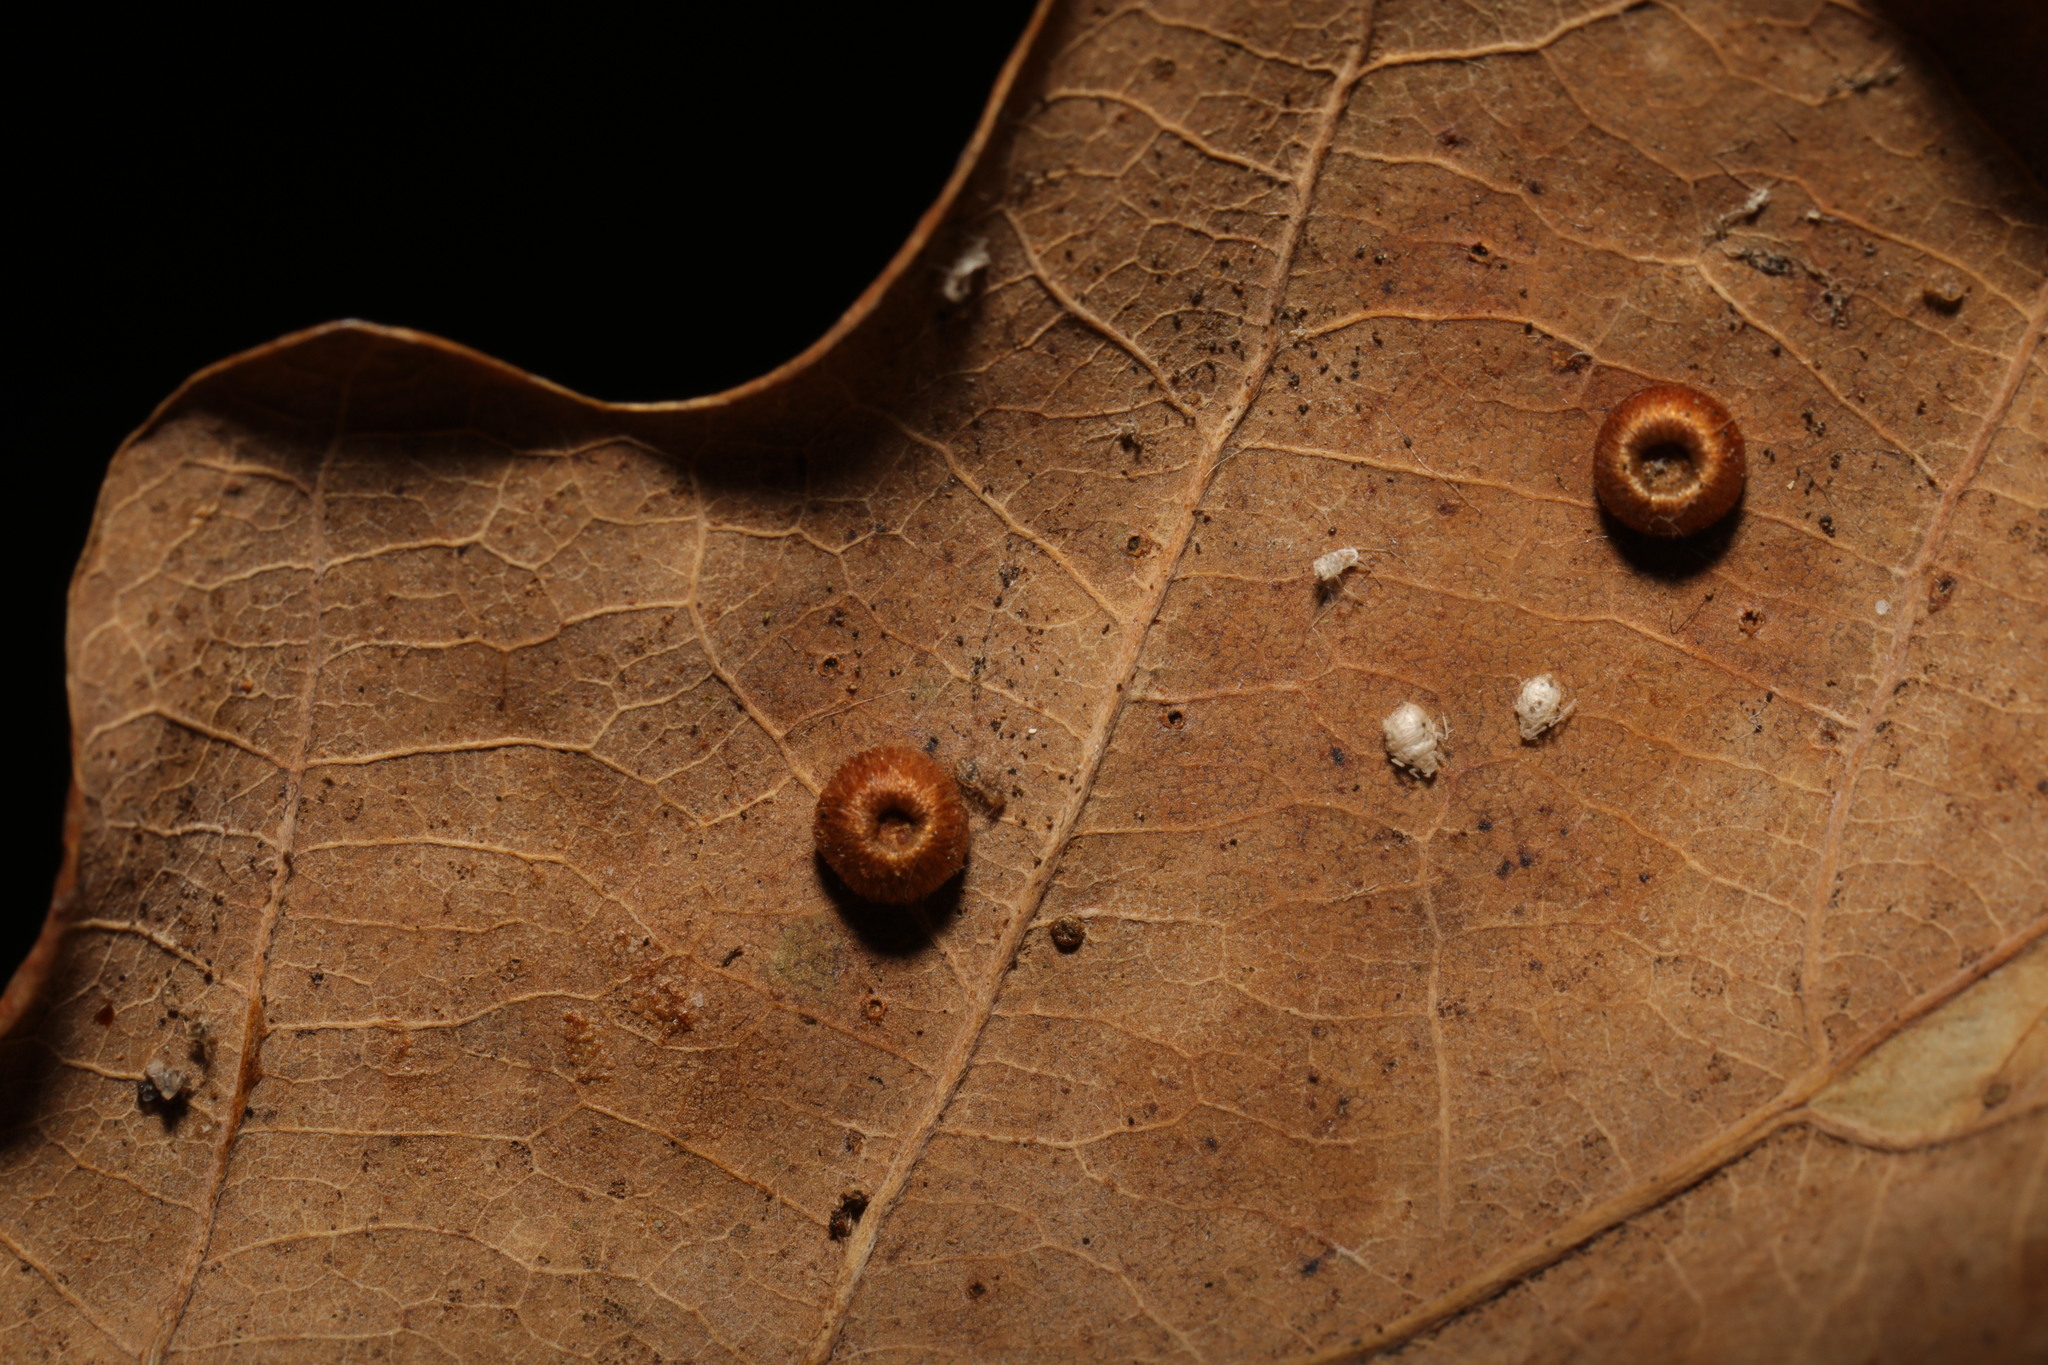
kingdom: Animalia
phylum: Arthropoda
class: Insecta
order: Hymenoptera
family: Cynipidae
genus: Neuroterus
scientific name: Neuroterus numismalis
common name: Silk-button spangle gall
